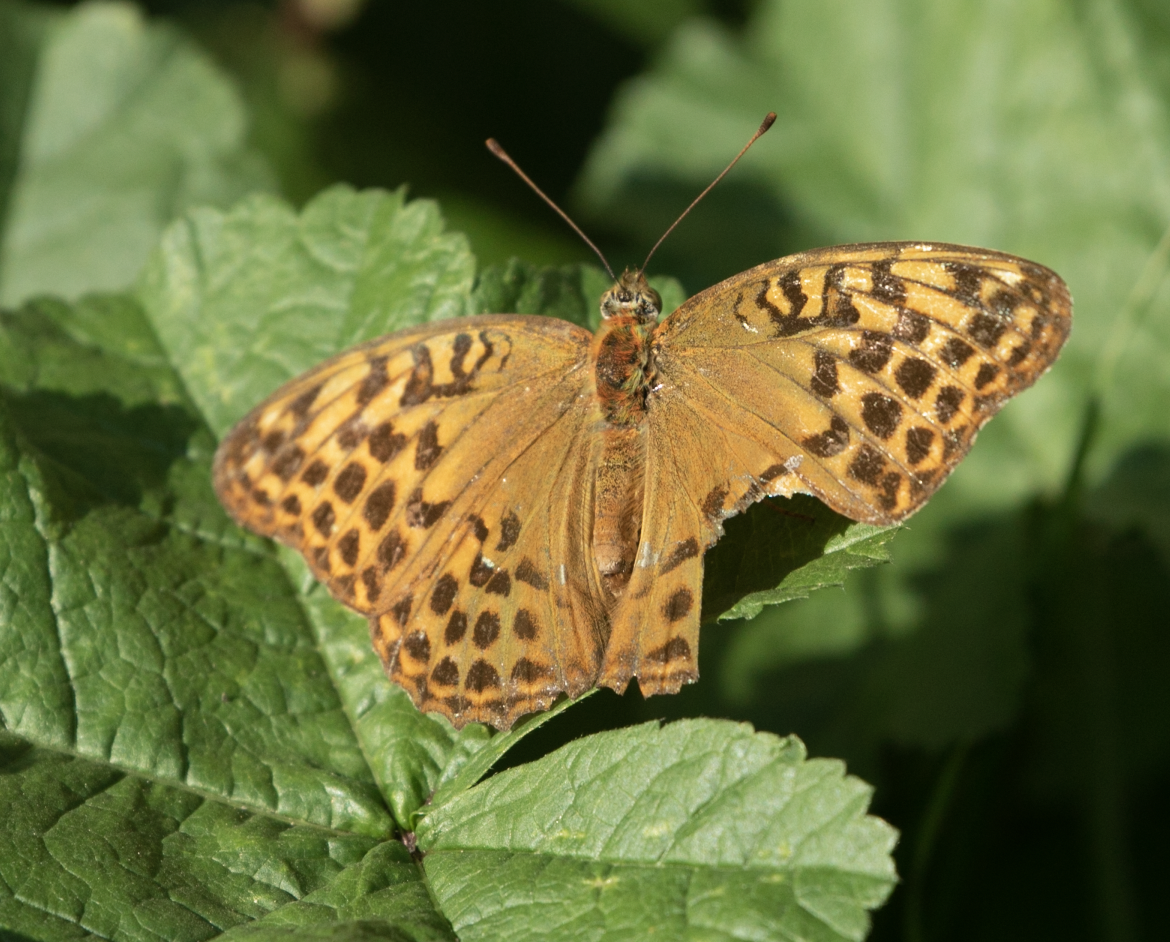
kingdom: Animalia
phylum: Arthropoda
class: Insecta
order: Lepidoptera
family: Nymphalidae
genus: Argynnis
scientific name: Argynnis paphia
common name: Silver-washed fritillary
